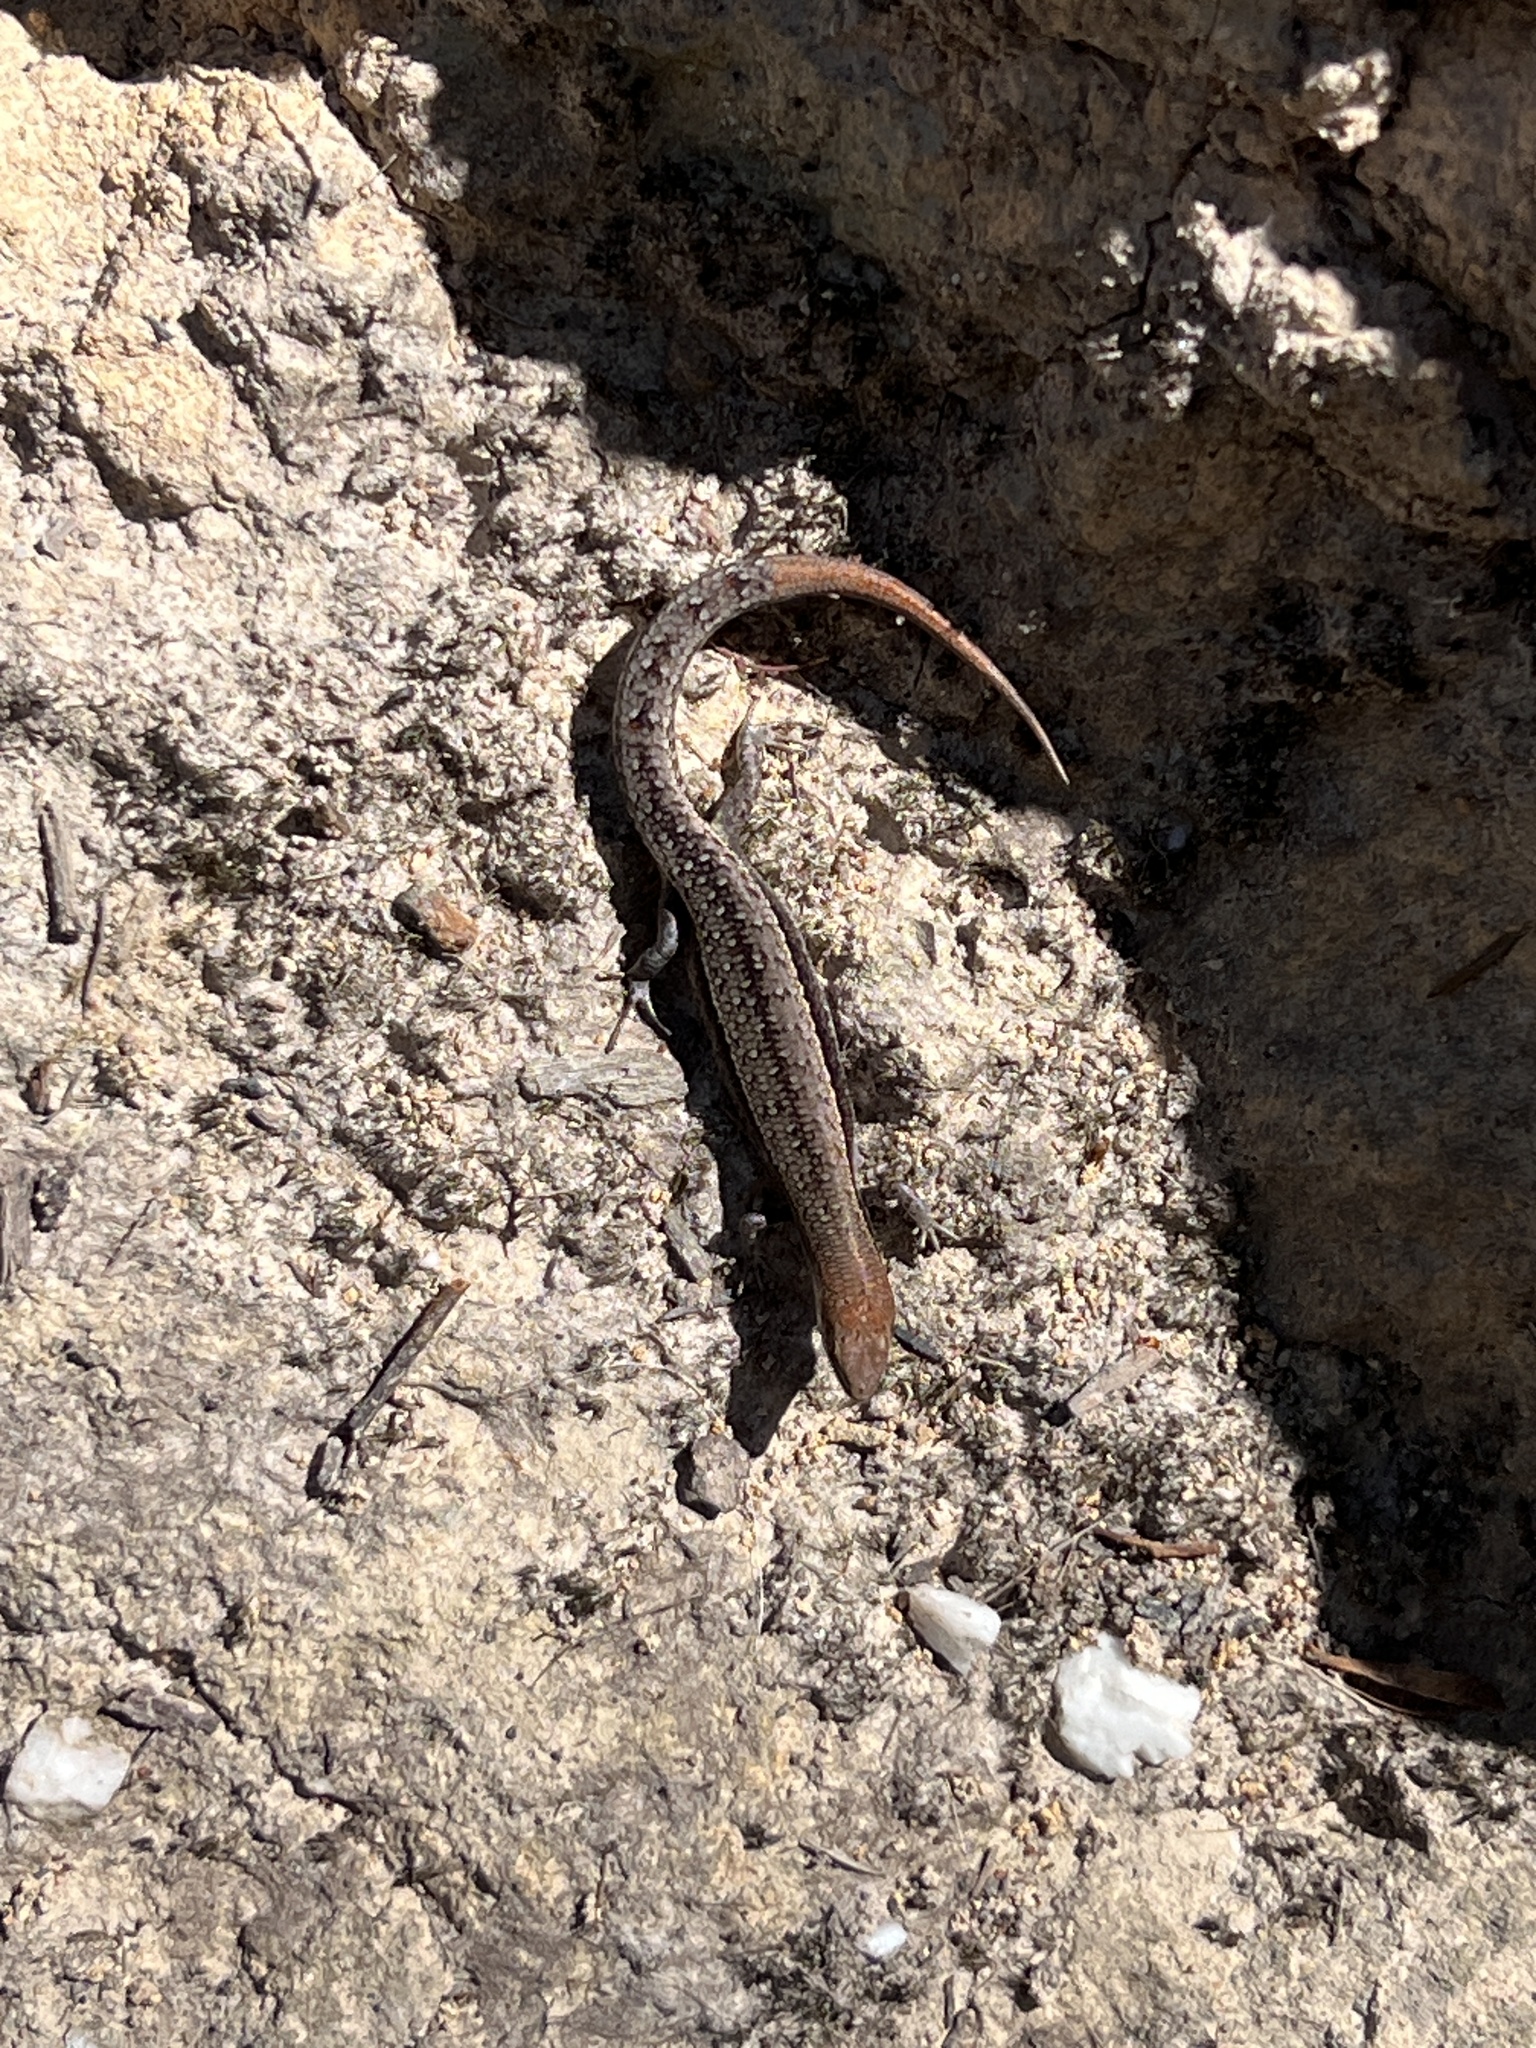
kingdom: Animalia
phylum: Chordata
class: Squamata
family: Scincidae
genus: Lampropholis
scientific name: Lampropholis guichenoti
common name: Garden skink
